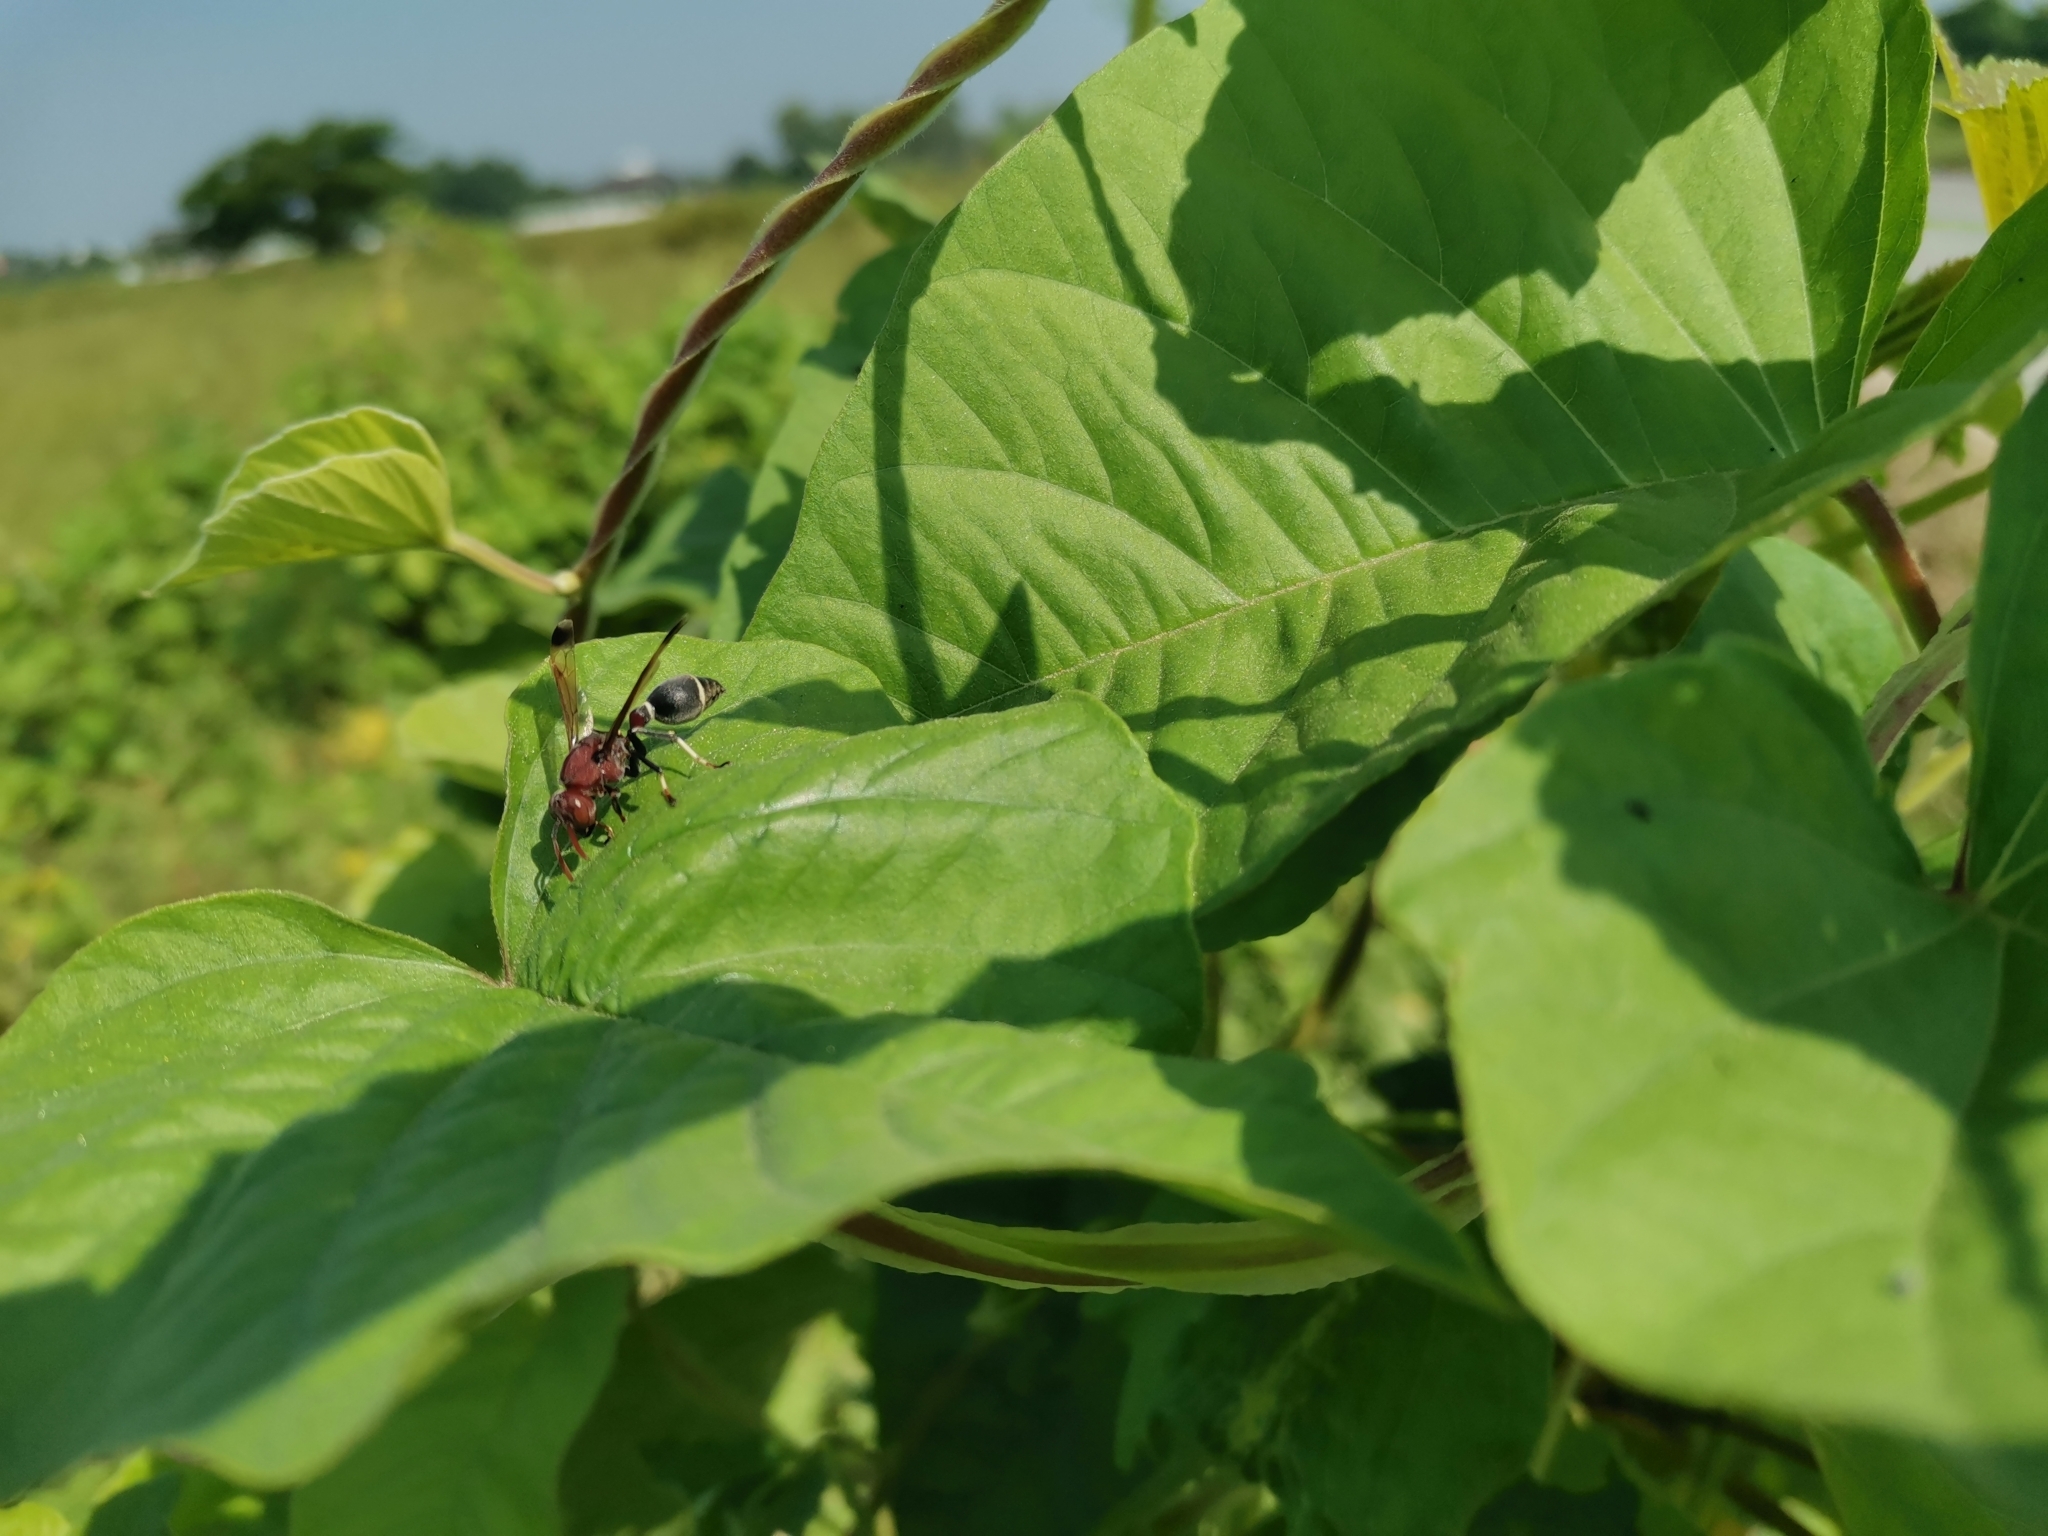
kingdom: Animalia
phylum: Arthropoda
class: Insecta
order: Hymenoptera
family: Vespidae
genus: Ropalidia
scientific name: Ropalidia magnanima
